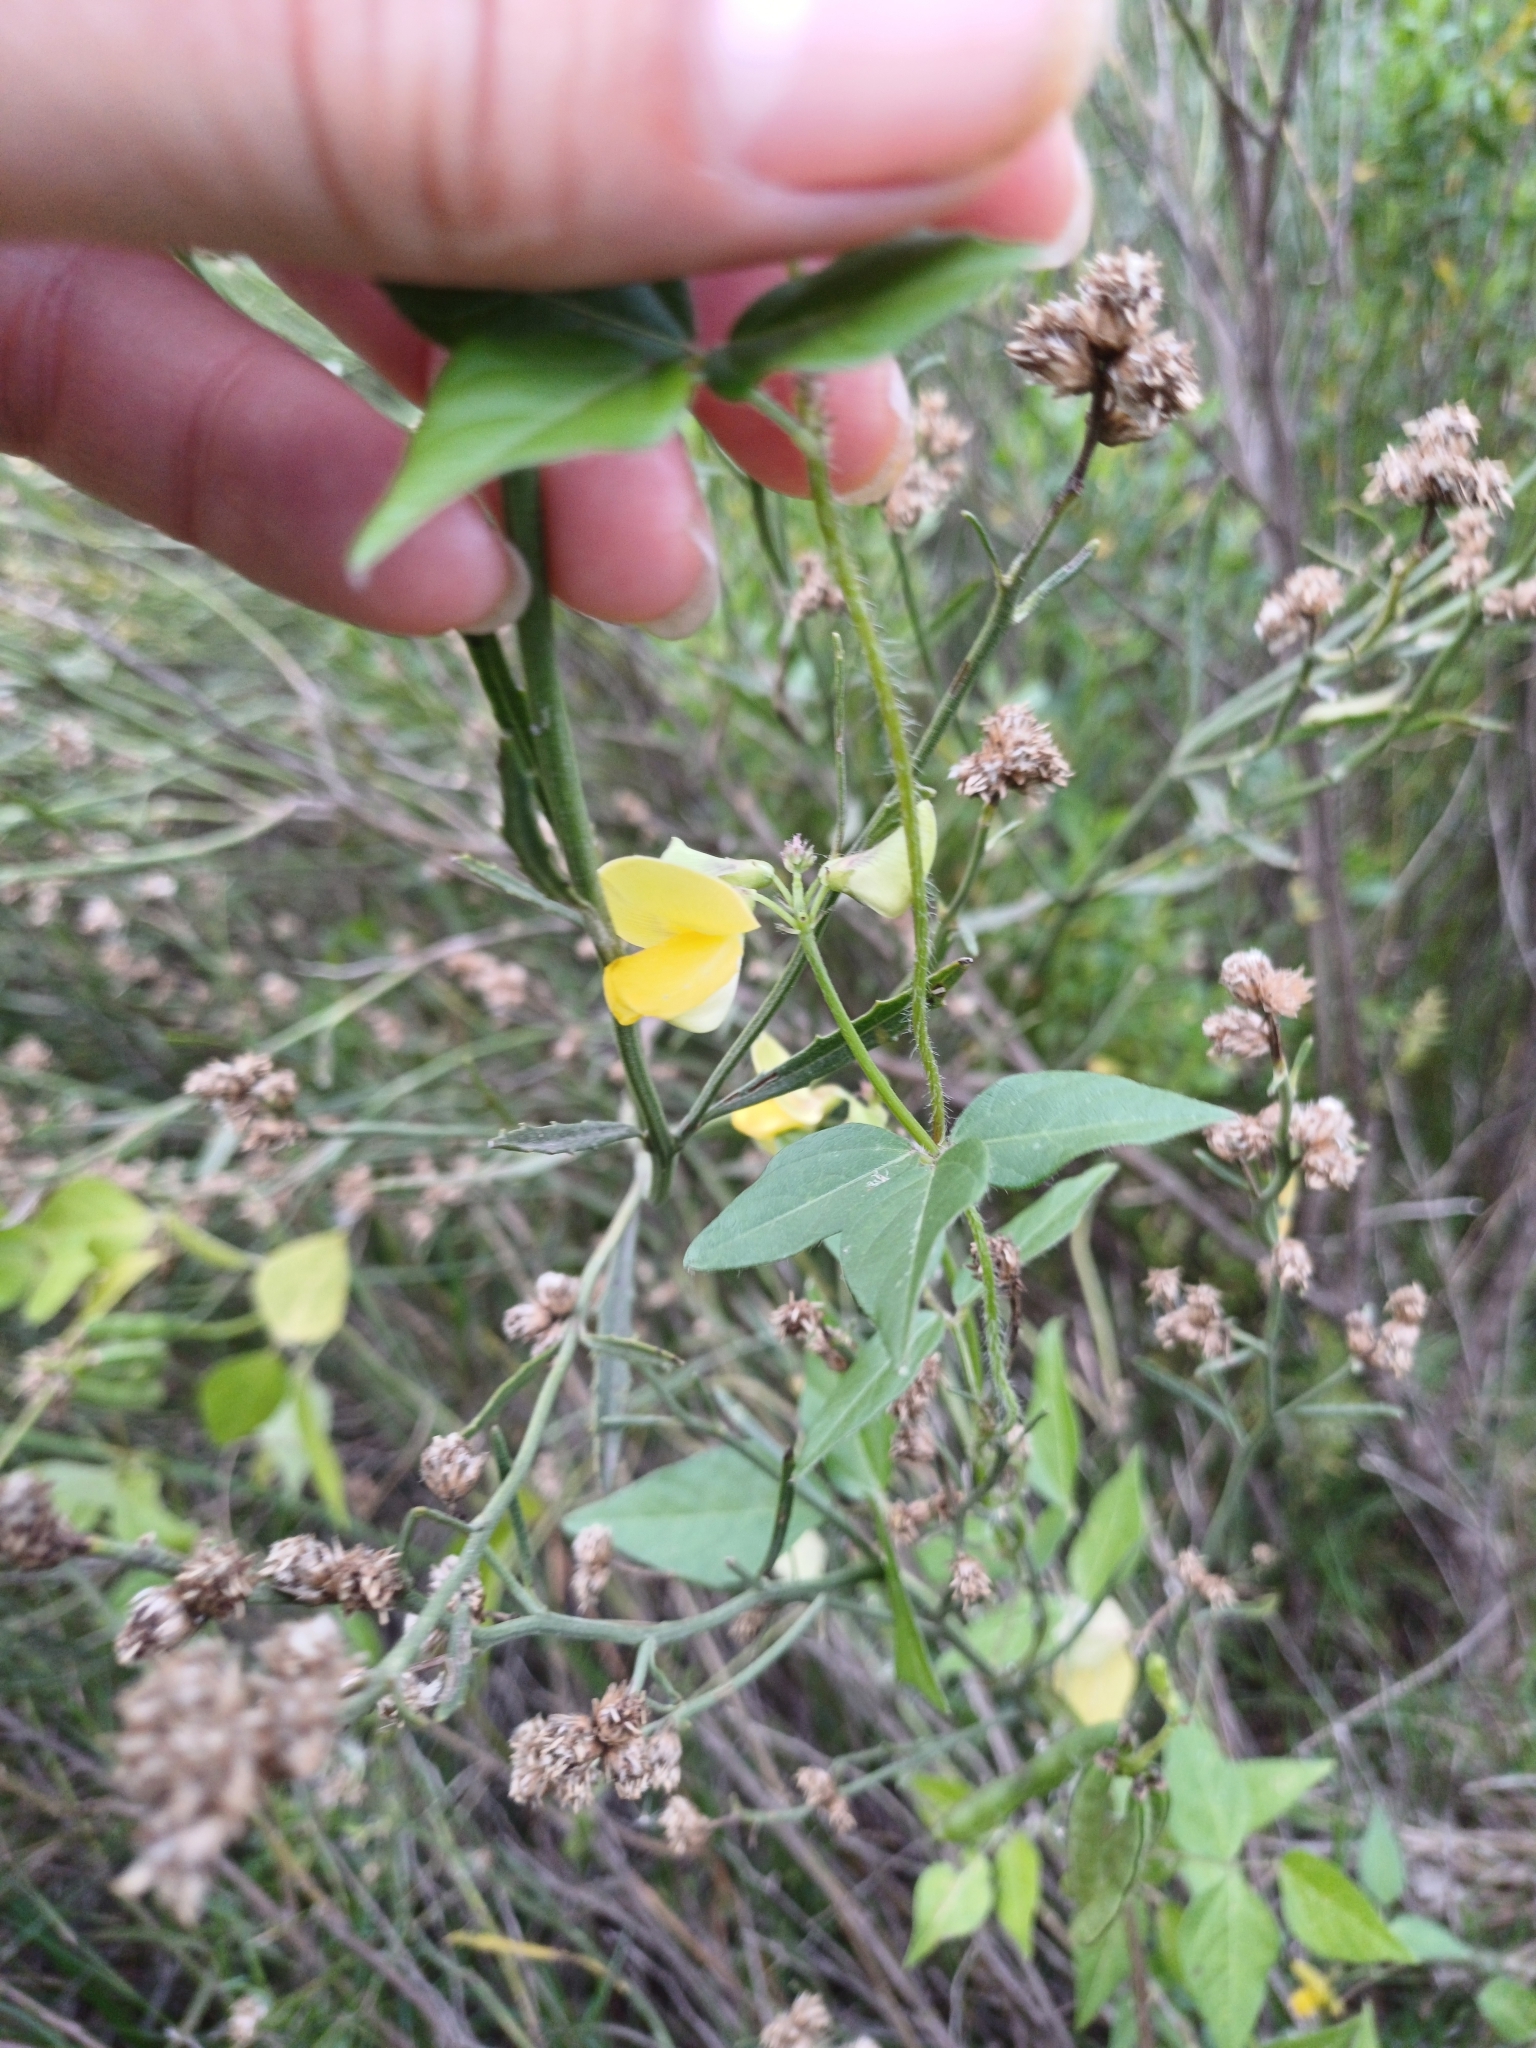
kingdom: Plantae
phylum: Tracheophyta
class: Magnoliopsida
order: Fabales
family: Fabaceae
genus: Vigna
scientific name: Vigna luteola
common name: Hairypod cowpea
